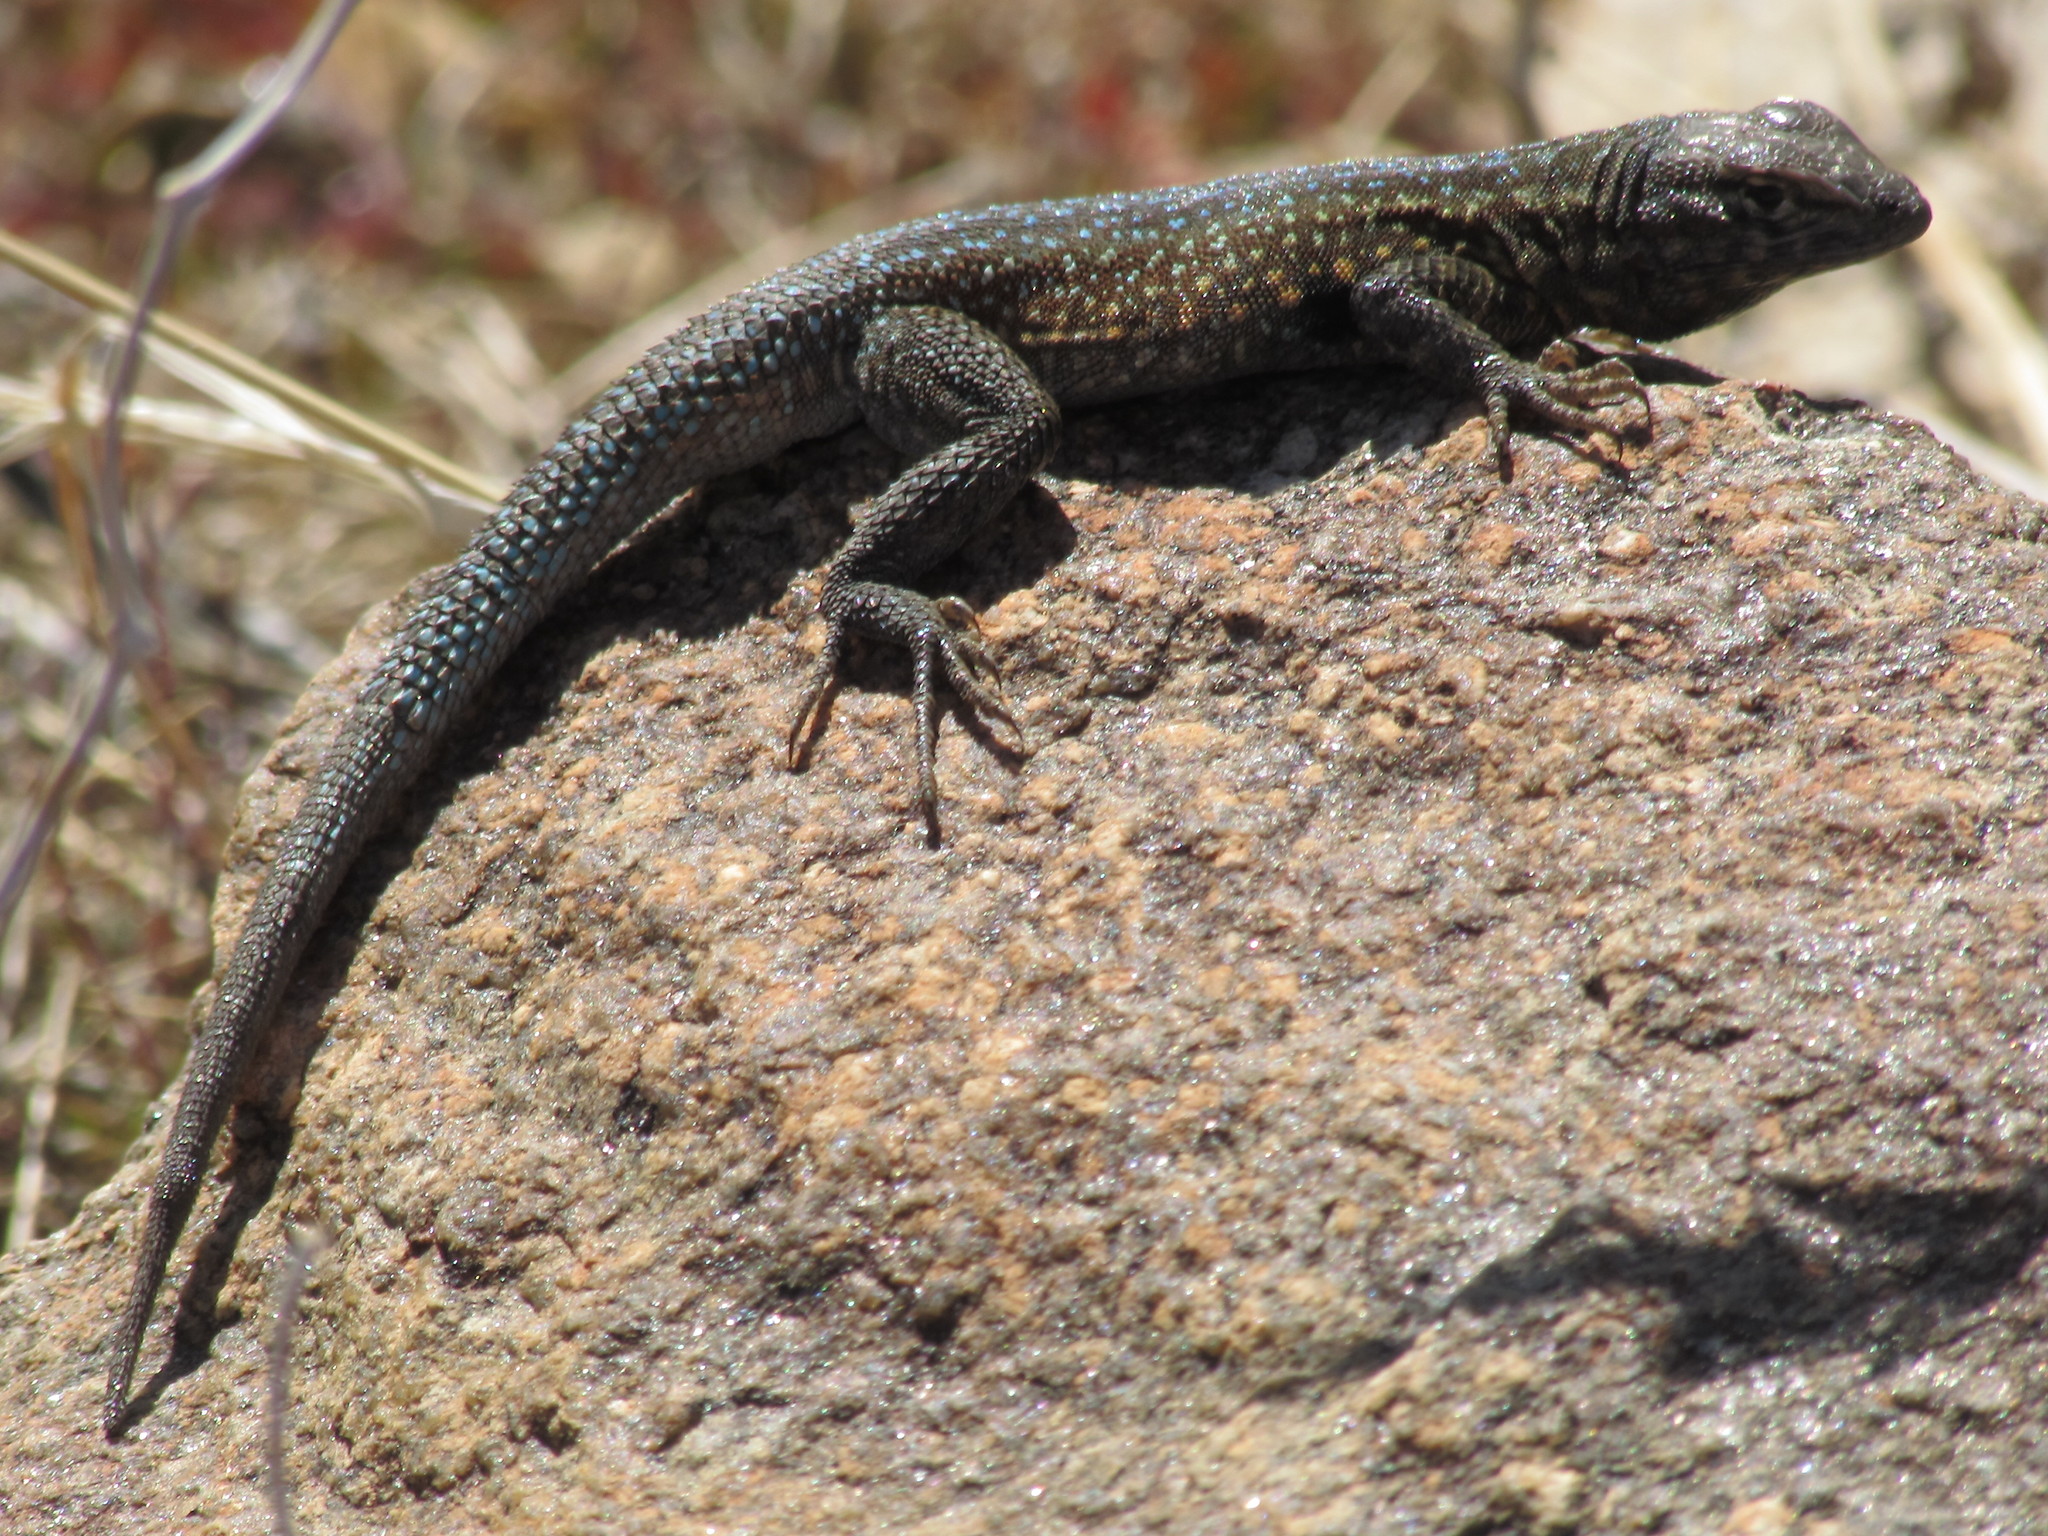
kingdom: Animalia
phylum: Chordata
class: Squamata
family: Phrynosomatidae
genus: Uta
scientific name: Uta stansburiana
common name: Side-blotched lizard
